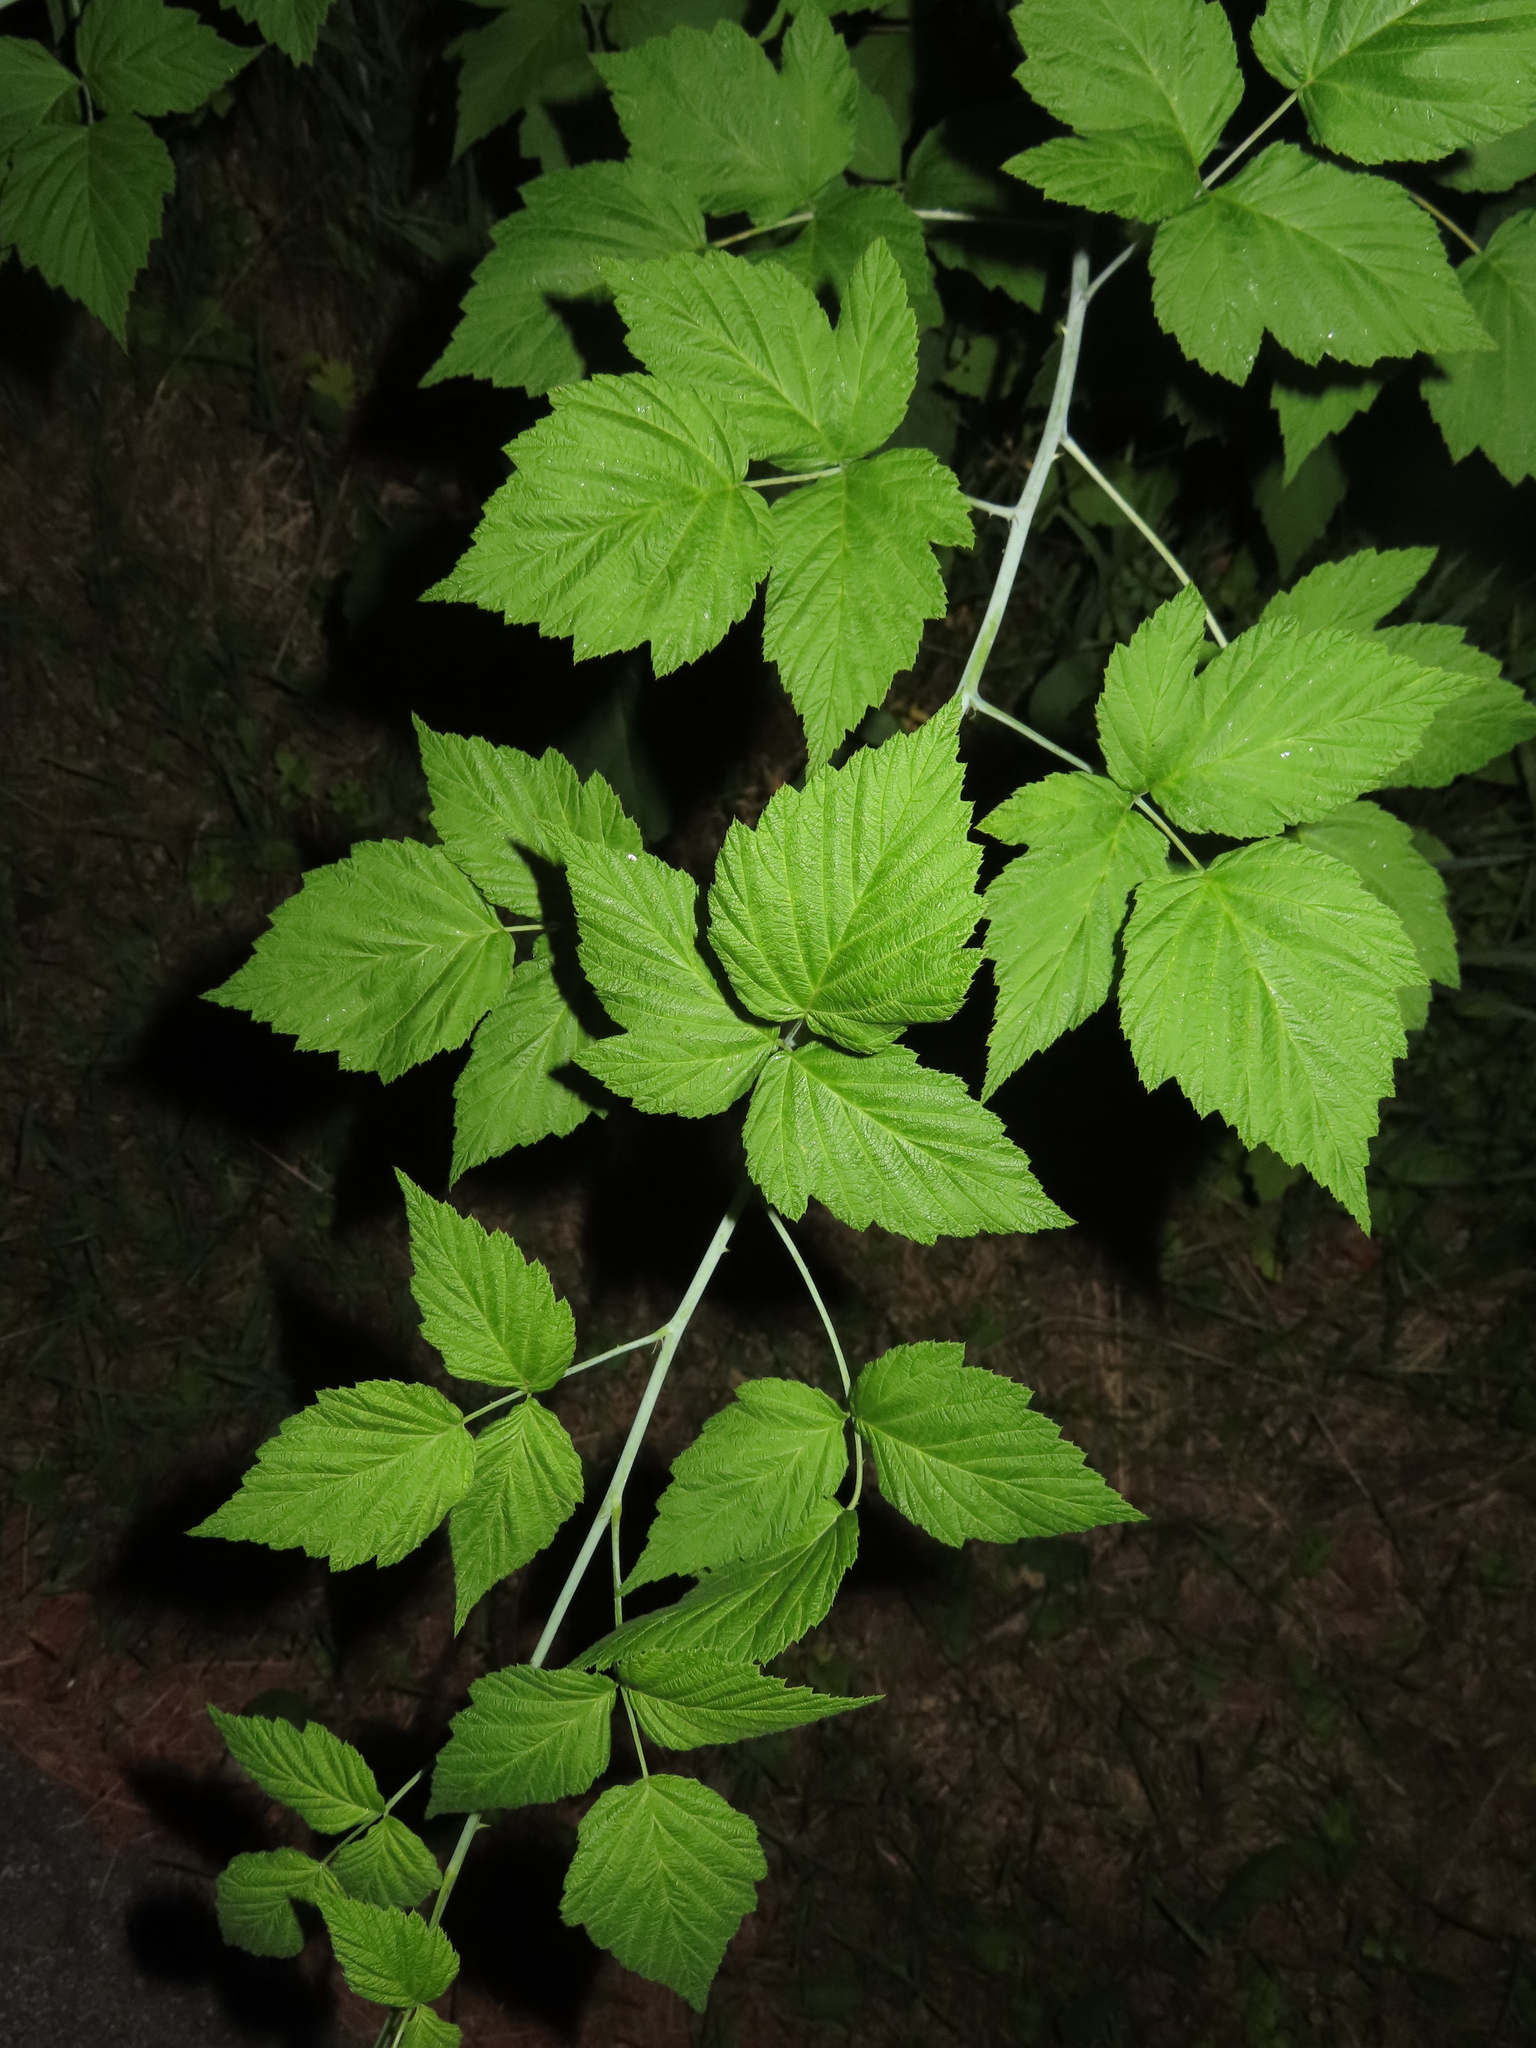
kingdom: Plantae
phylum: Tracheophyta
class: Magnoliopsida
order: Rosales
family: Rosaceae
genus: Rubus
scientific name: Rubus occidentalis
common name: Black raspberry
